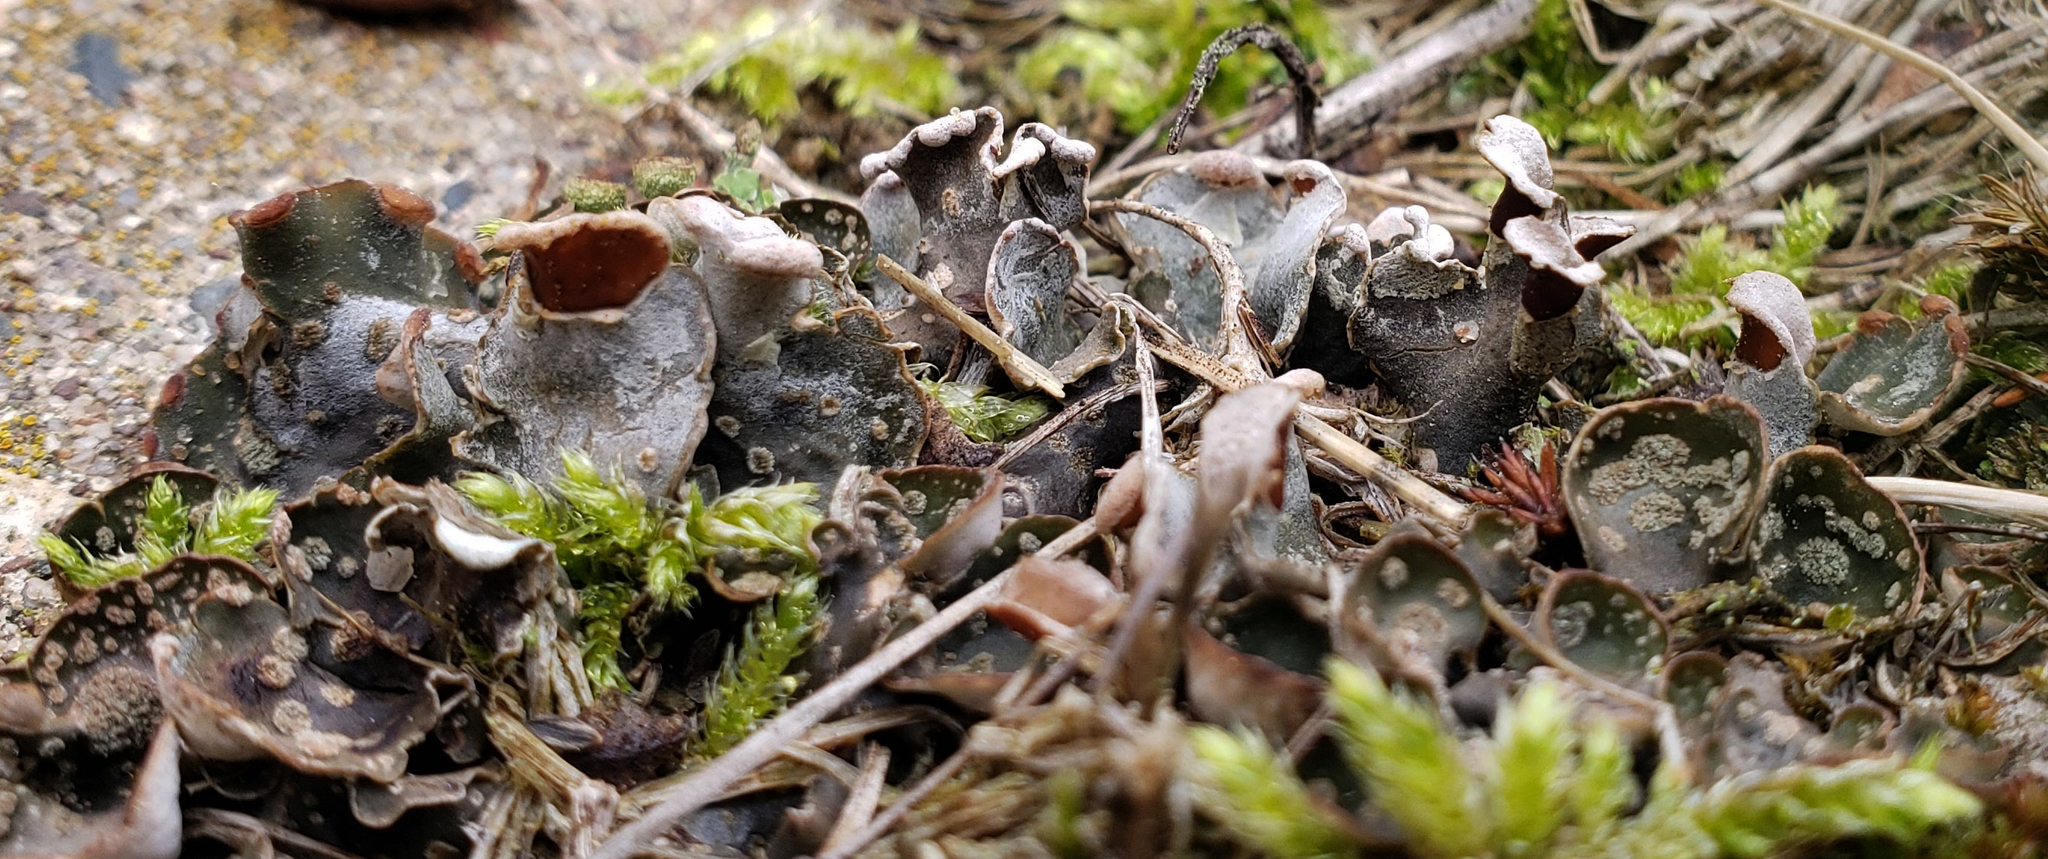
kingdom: Fungi
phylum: Ascomycota
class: Lecanoromycetes
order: Peltigerales
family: Peltigeraceae
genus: Peltigera
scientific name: Peltigera didactyla
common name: Alternating dog lichen
